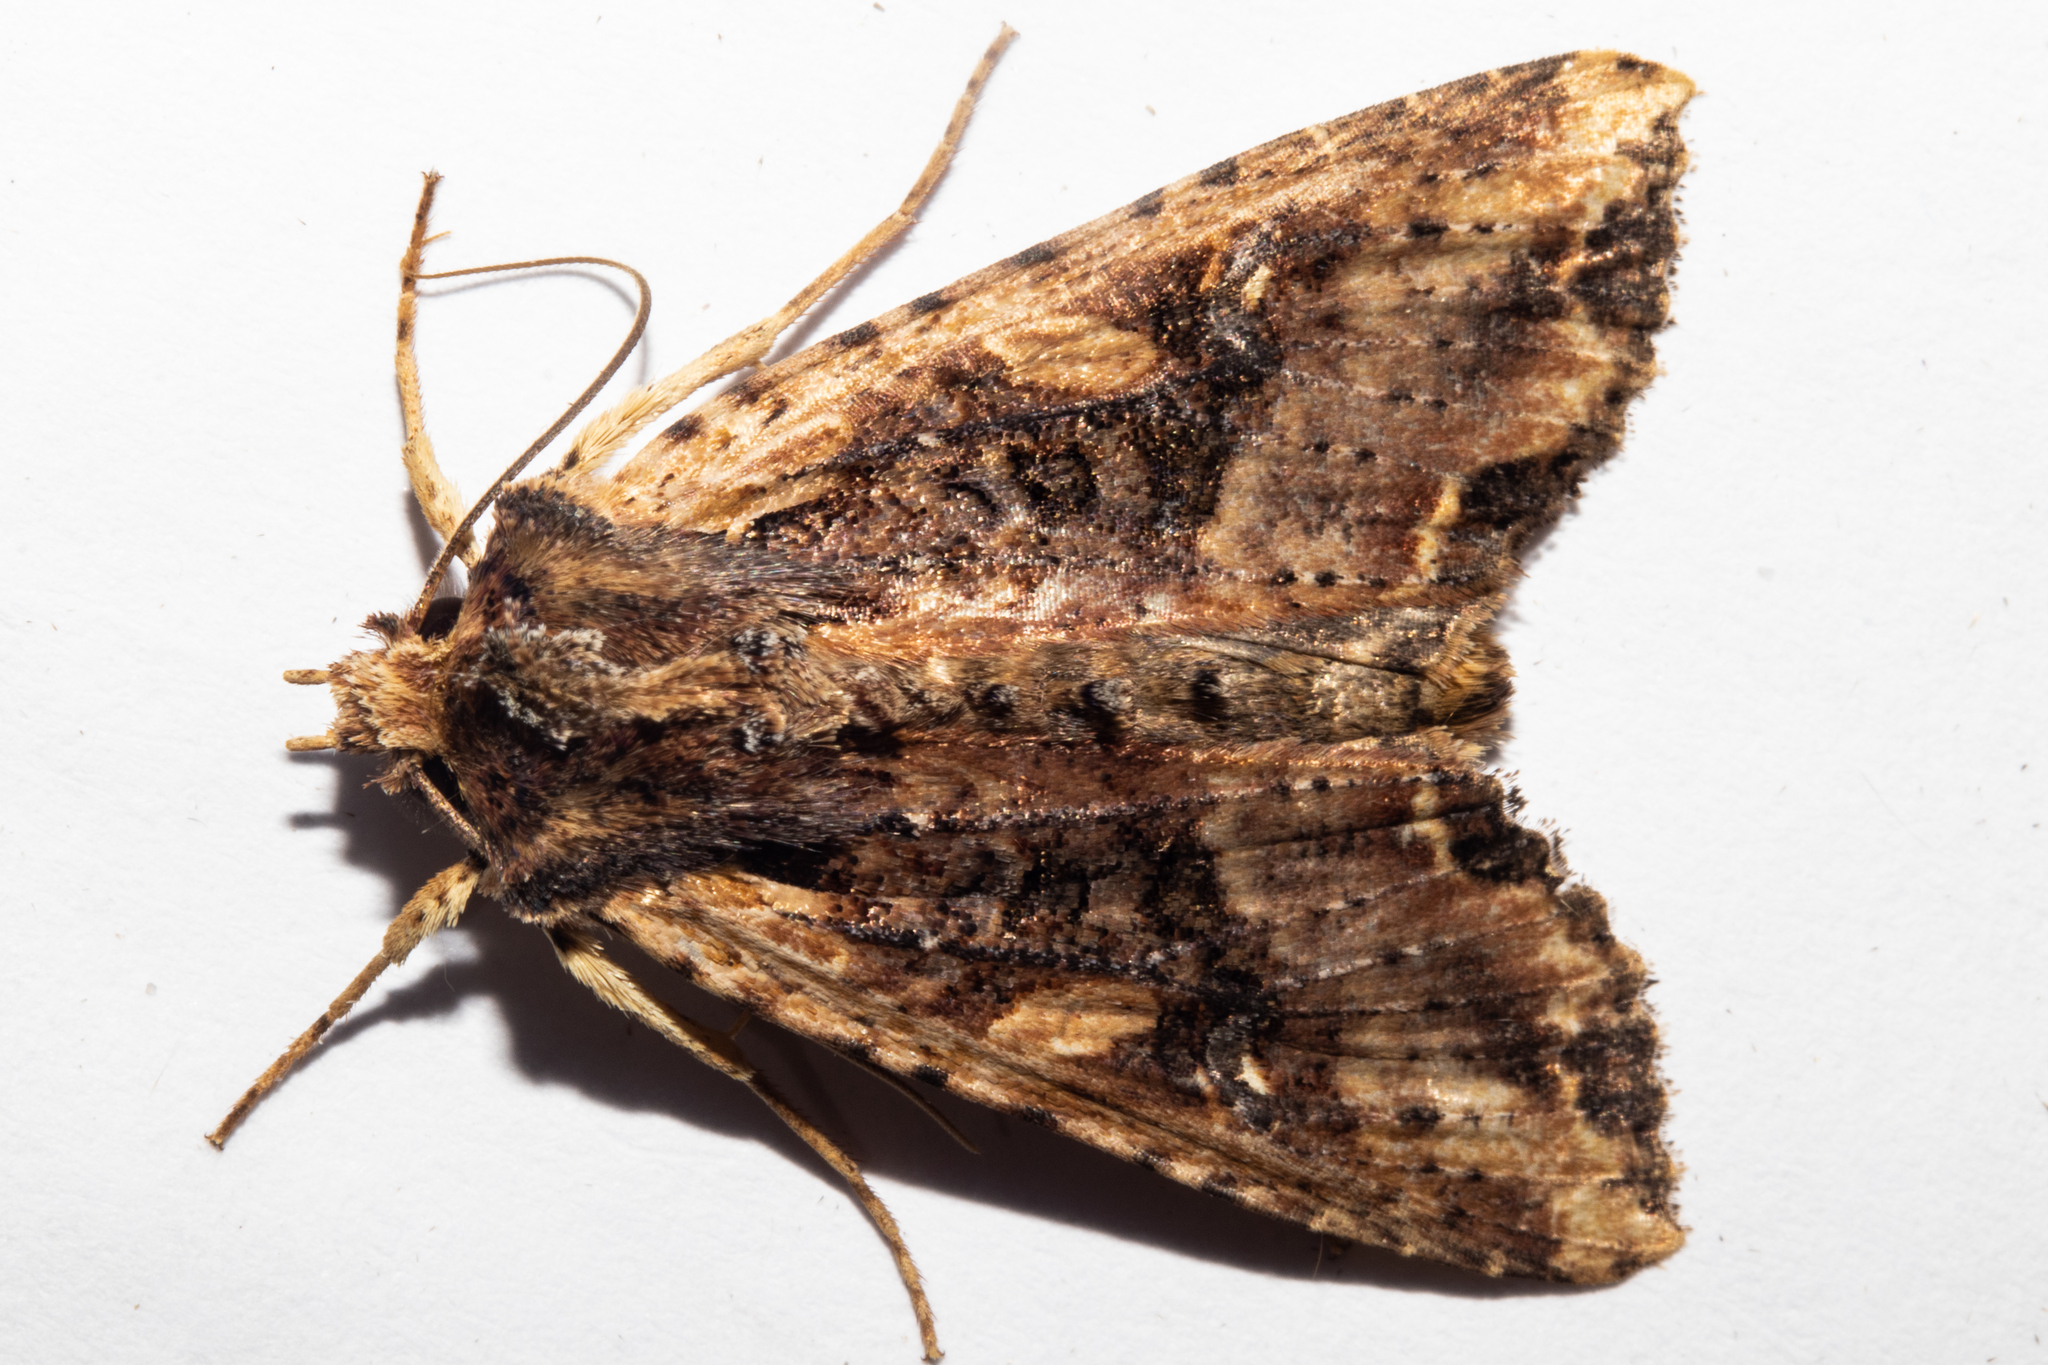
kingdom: Animalia
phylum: Arthropoda
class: Insecta
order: Lepidoptera
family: Noctuidae
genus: Meterana
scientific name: Meterana stipata
